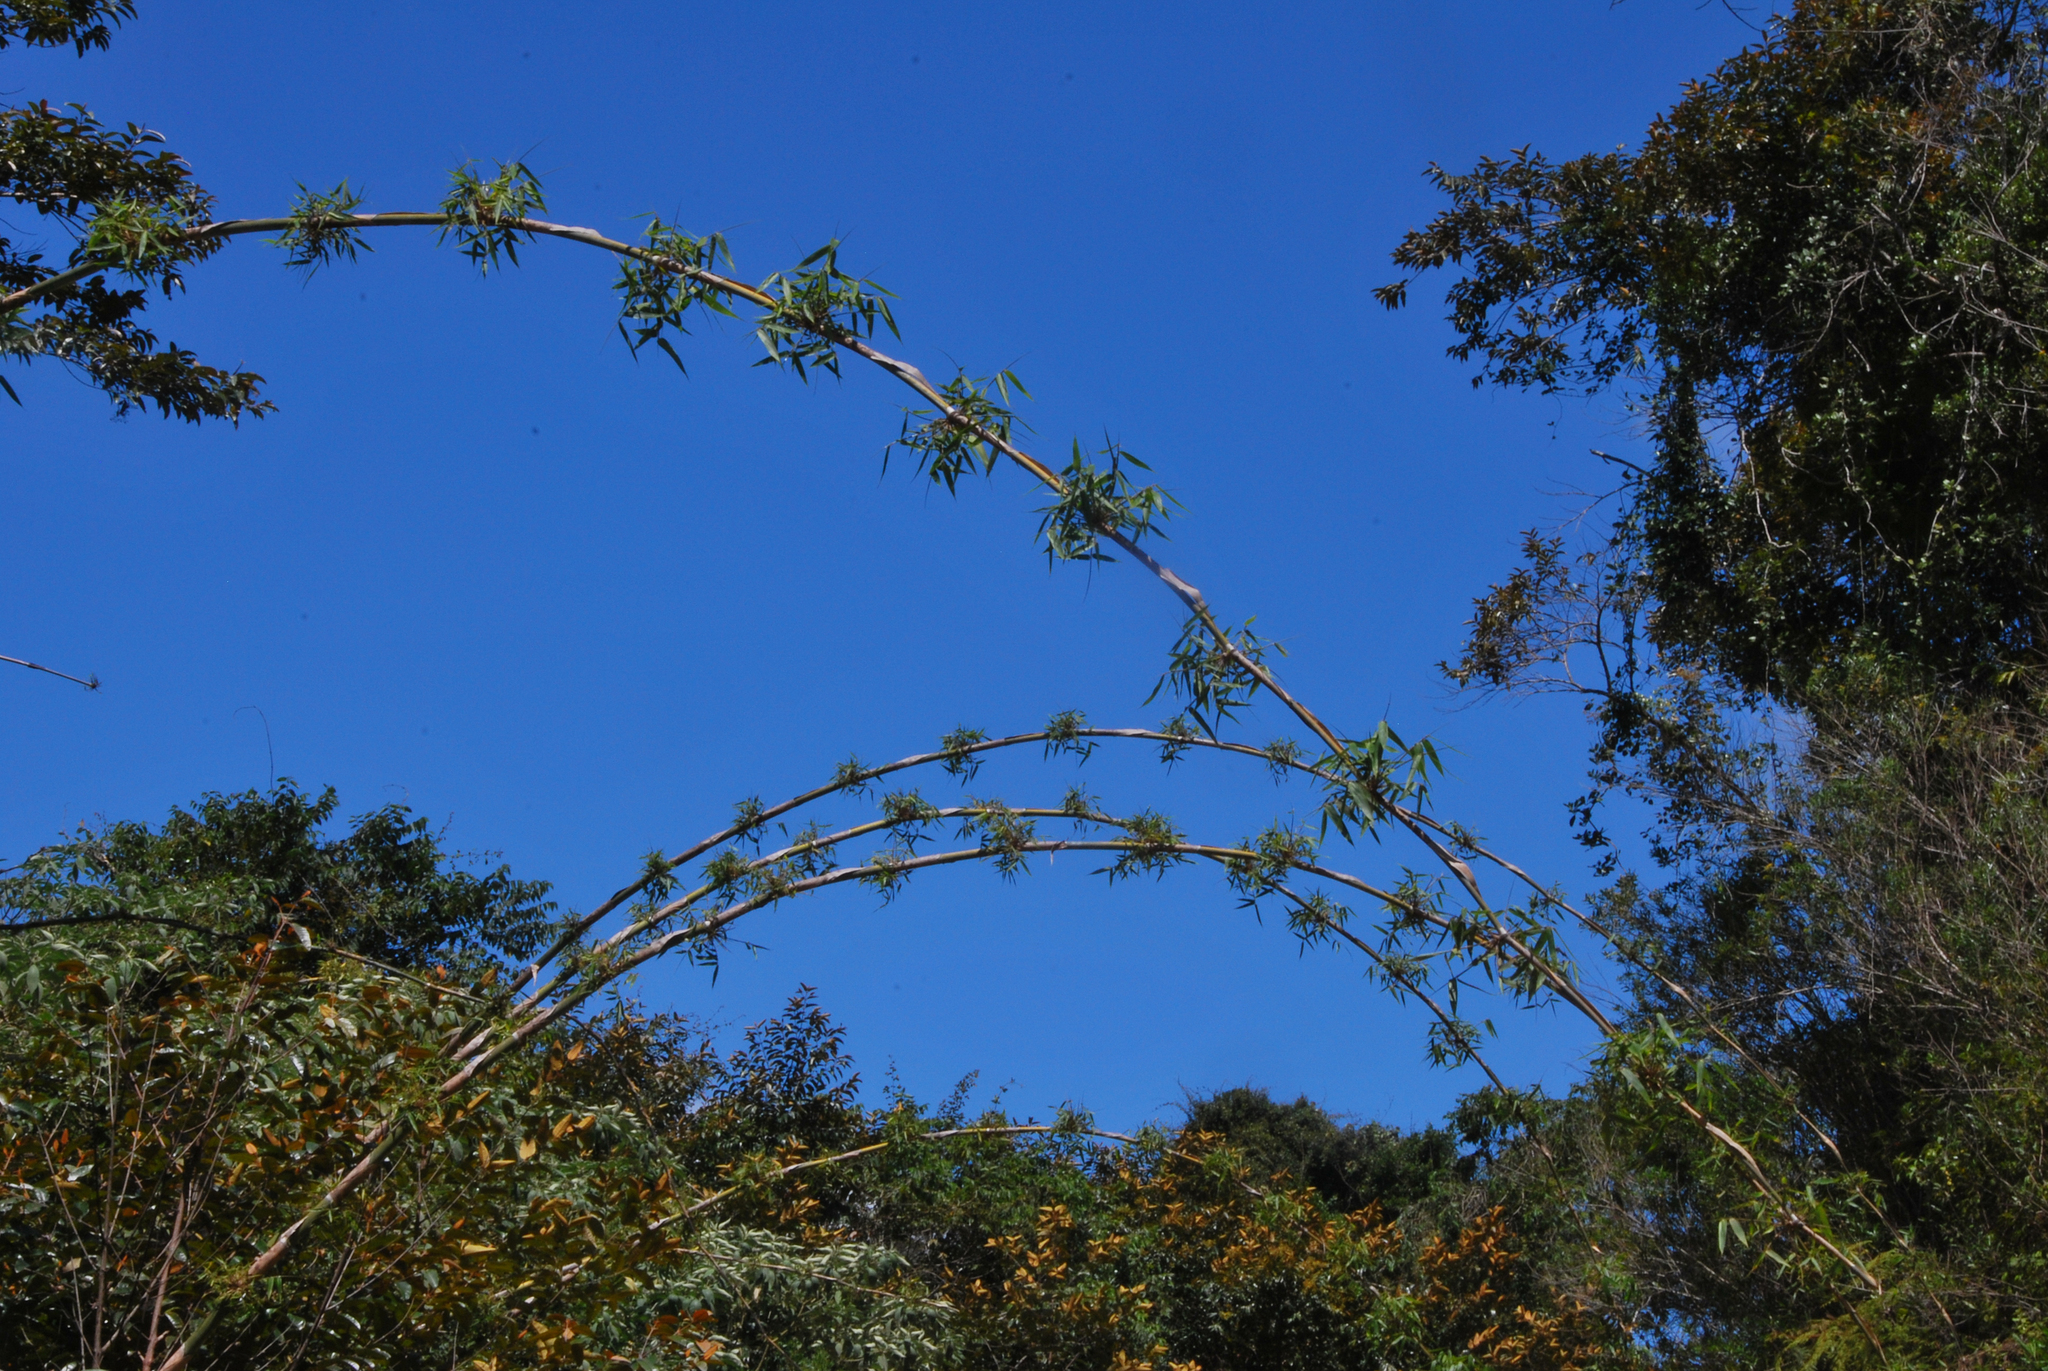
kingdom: Plantae
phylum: Tracheophyta
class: Liliopsida
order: Poales
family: Poaceae
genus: Cathariostachys
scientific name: Cathariostachys madagascariensis
